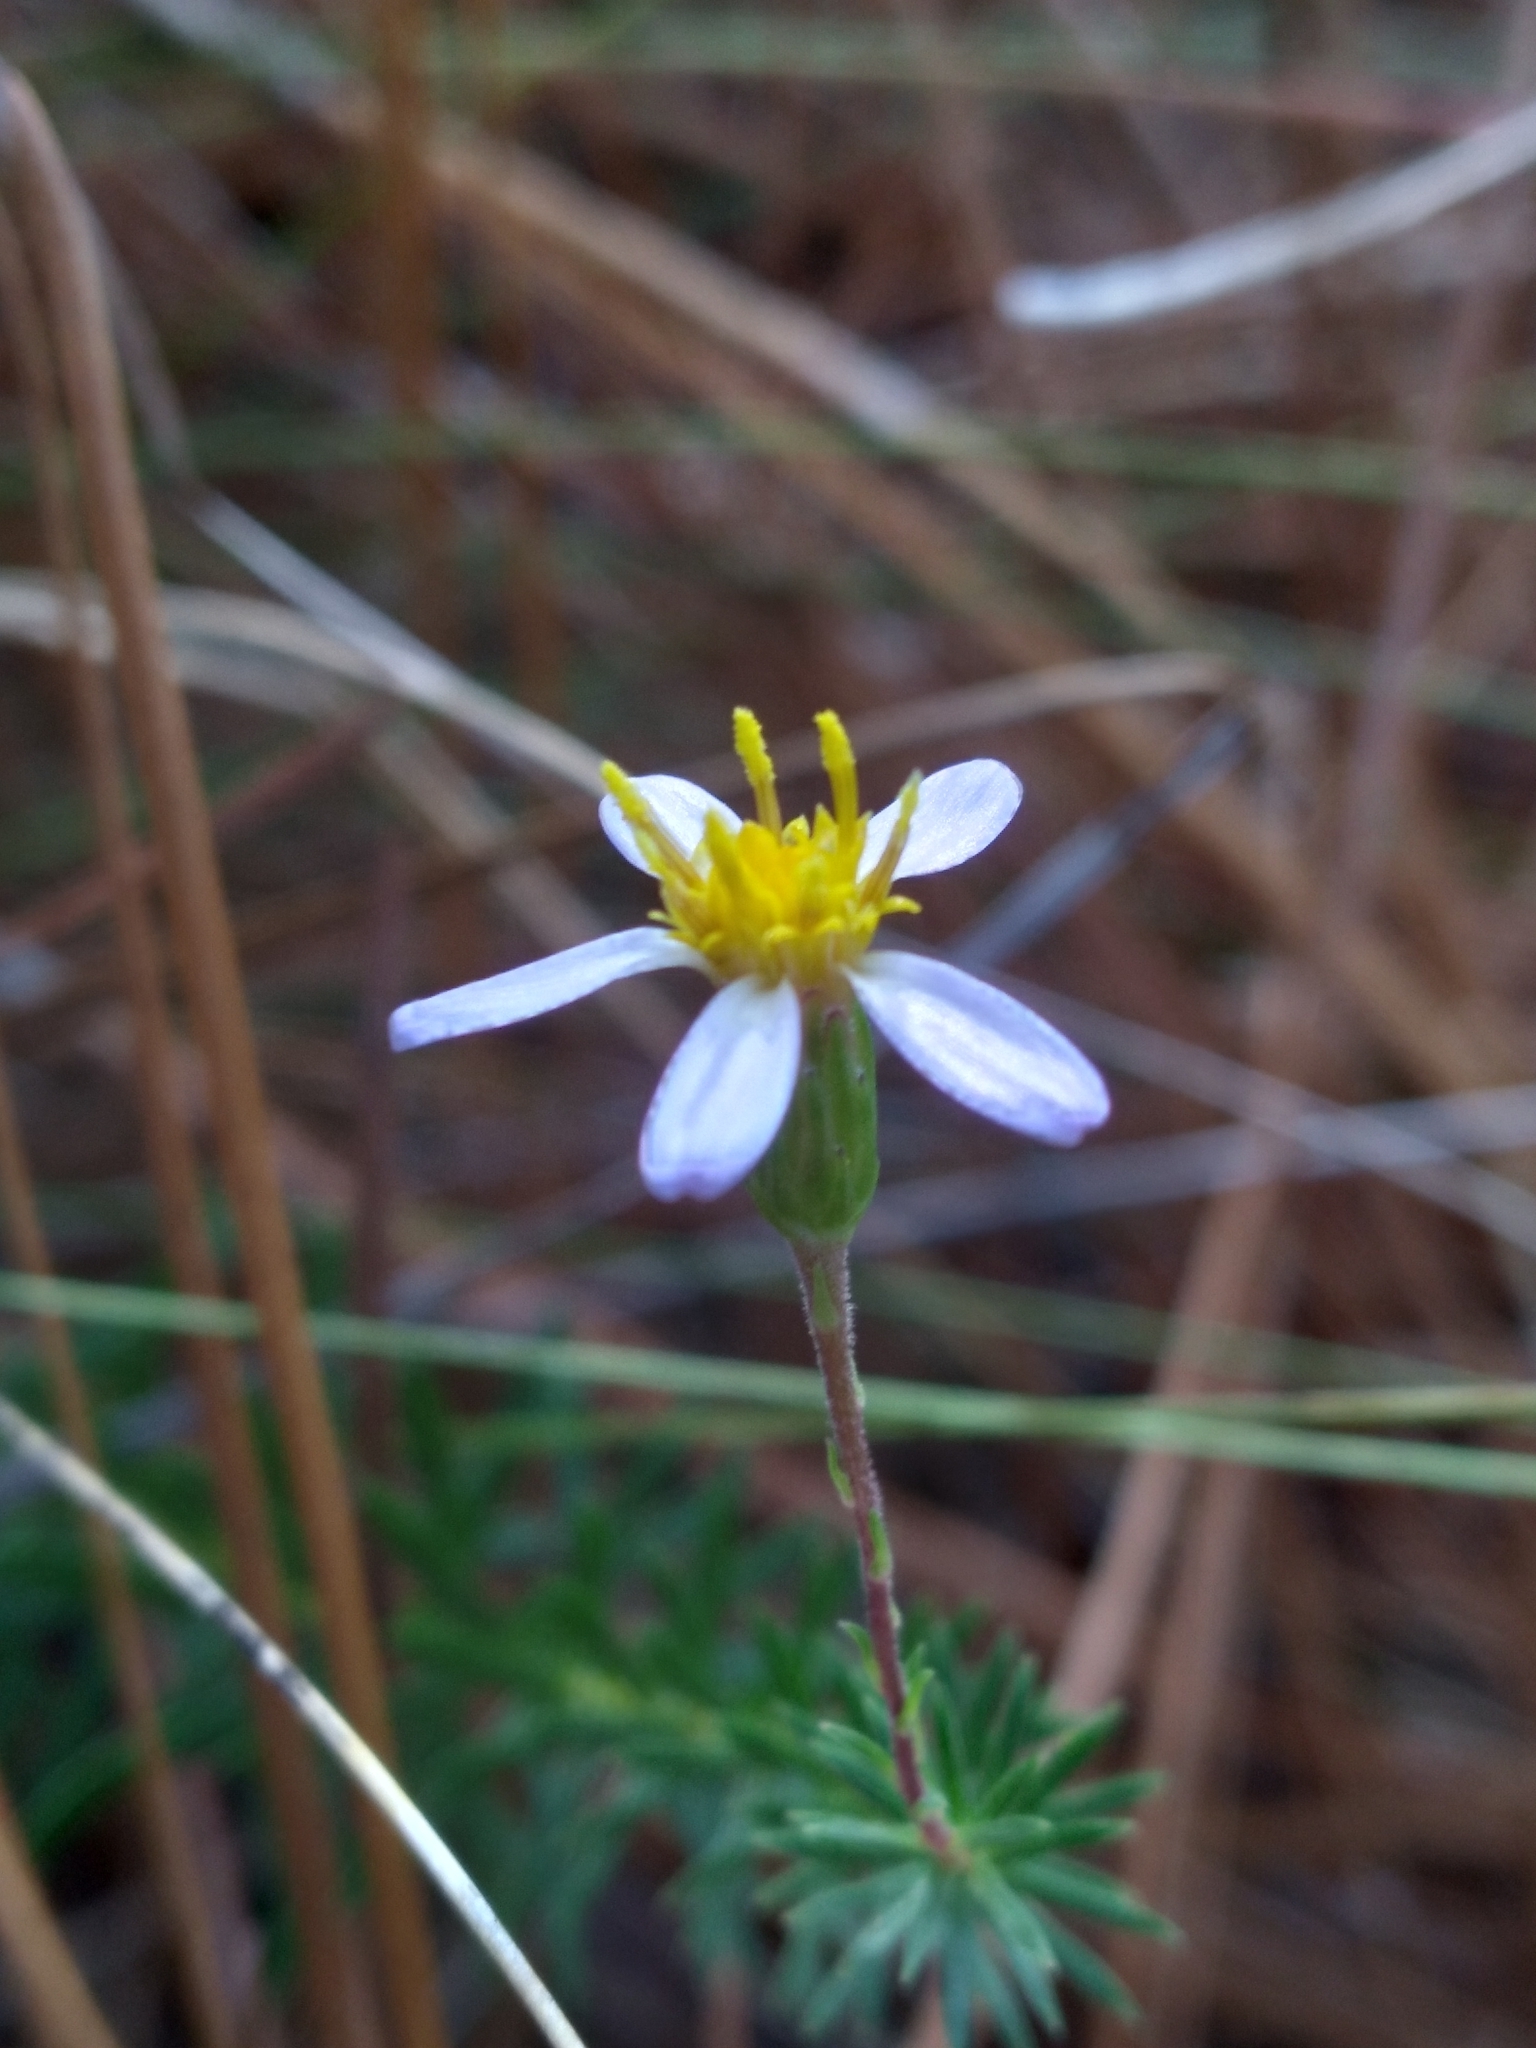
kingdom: Plantae
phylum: Tracheophyta
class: Magnoliopsida
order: Asterales
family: Asteraceae
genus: Ionactis
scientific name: Ionactis linariifolia
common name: Flax-leaf aster
